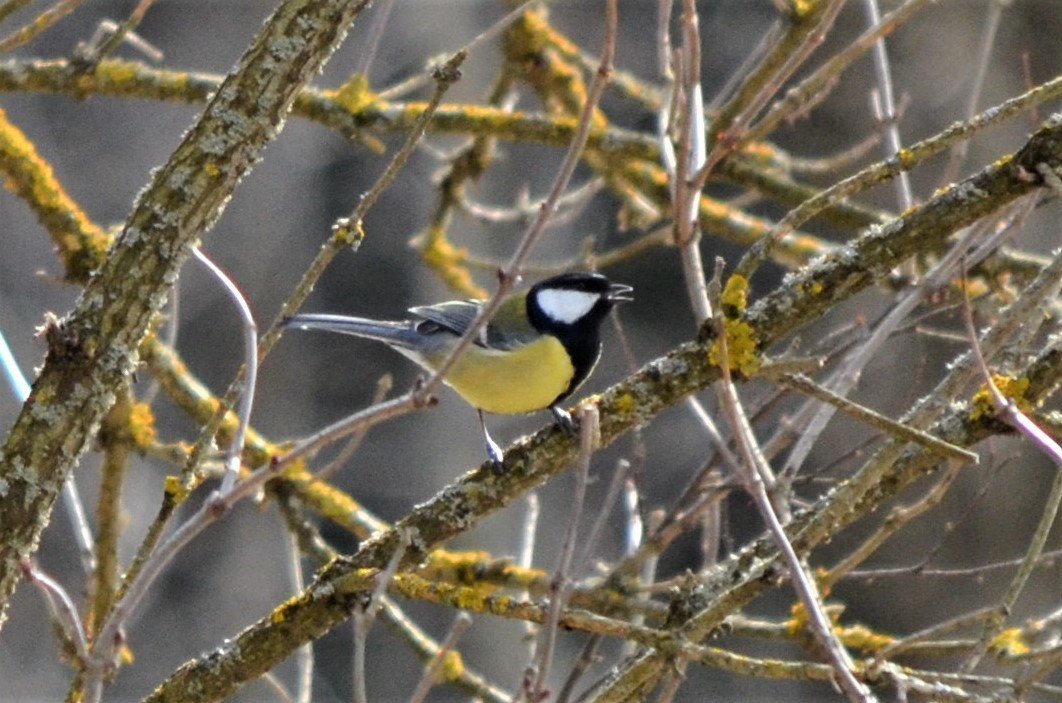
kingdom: Animalia
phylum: Chordata
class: Aves
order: Passeriformes
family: Paridae
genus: Parus
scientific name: Parus major
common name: Great tit
